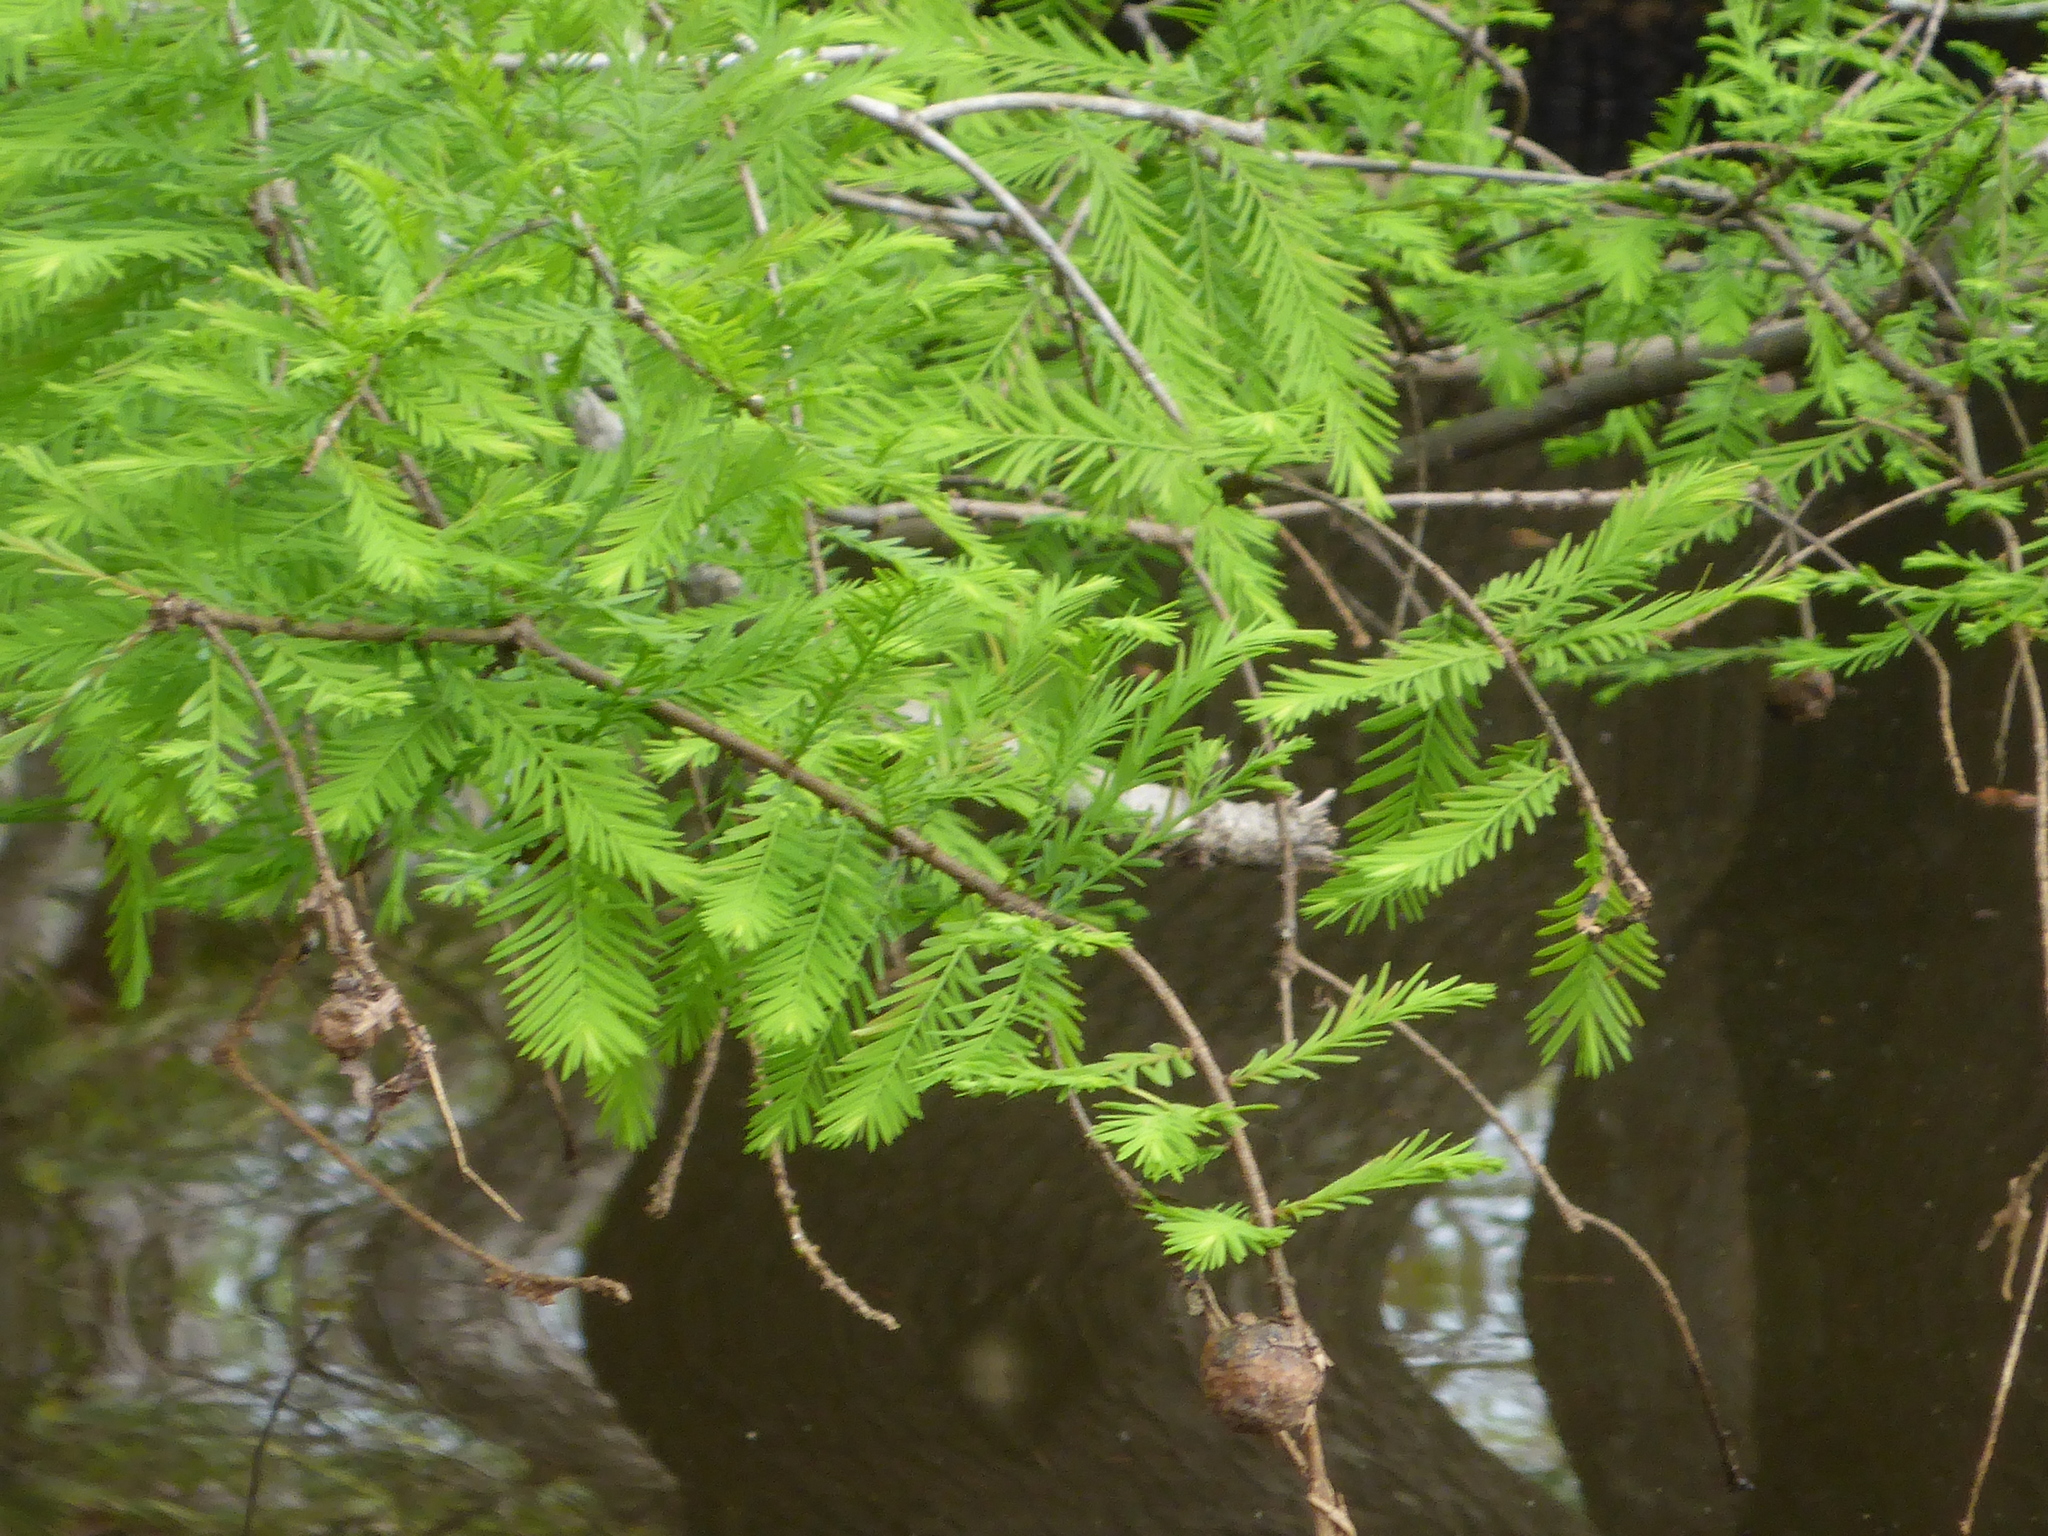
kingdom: Plantae
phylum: Tracheophyta
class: Pinopsida
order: Pinales
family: Cupressaceae
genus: Taxodium
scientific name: Taxodium distichum
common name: Bald cypress
